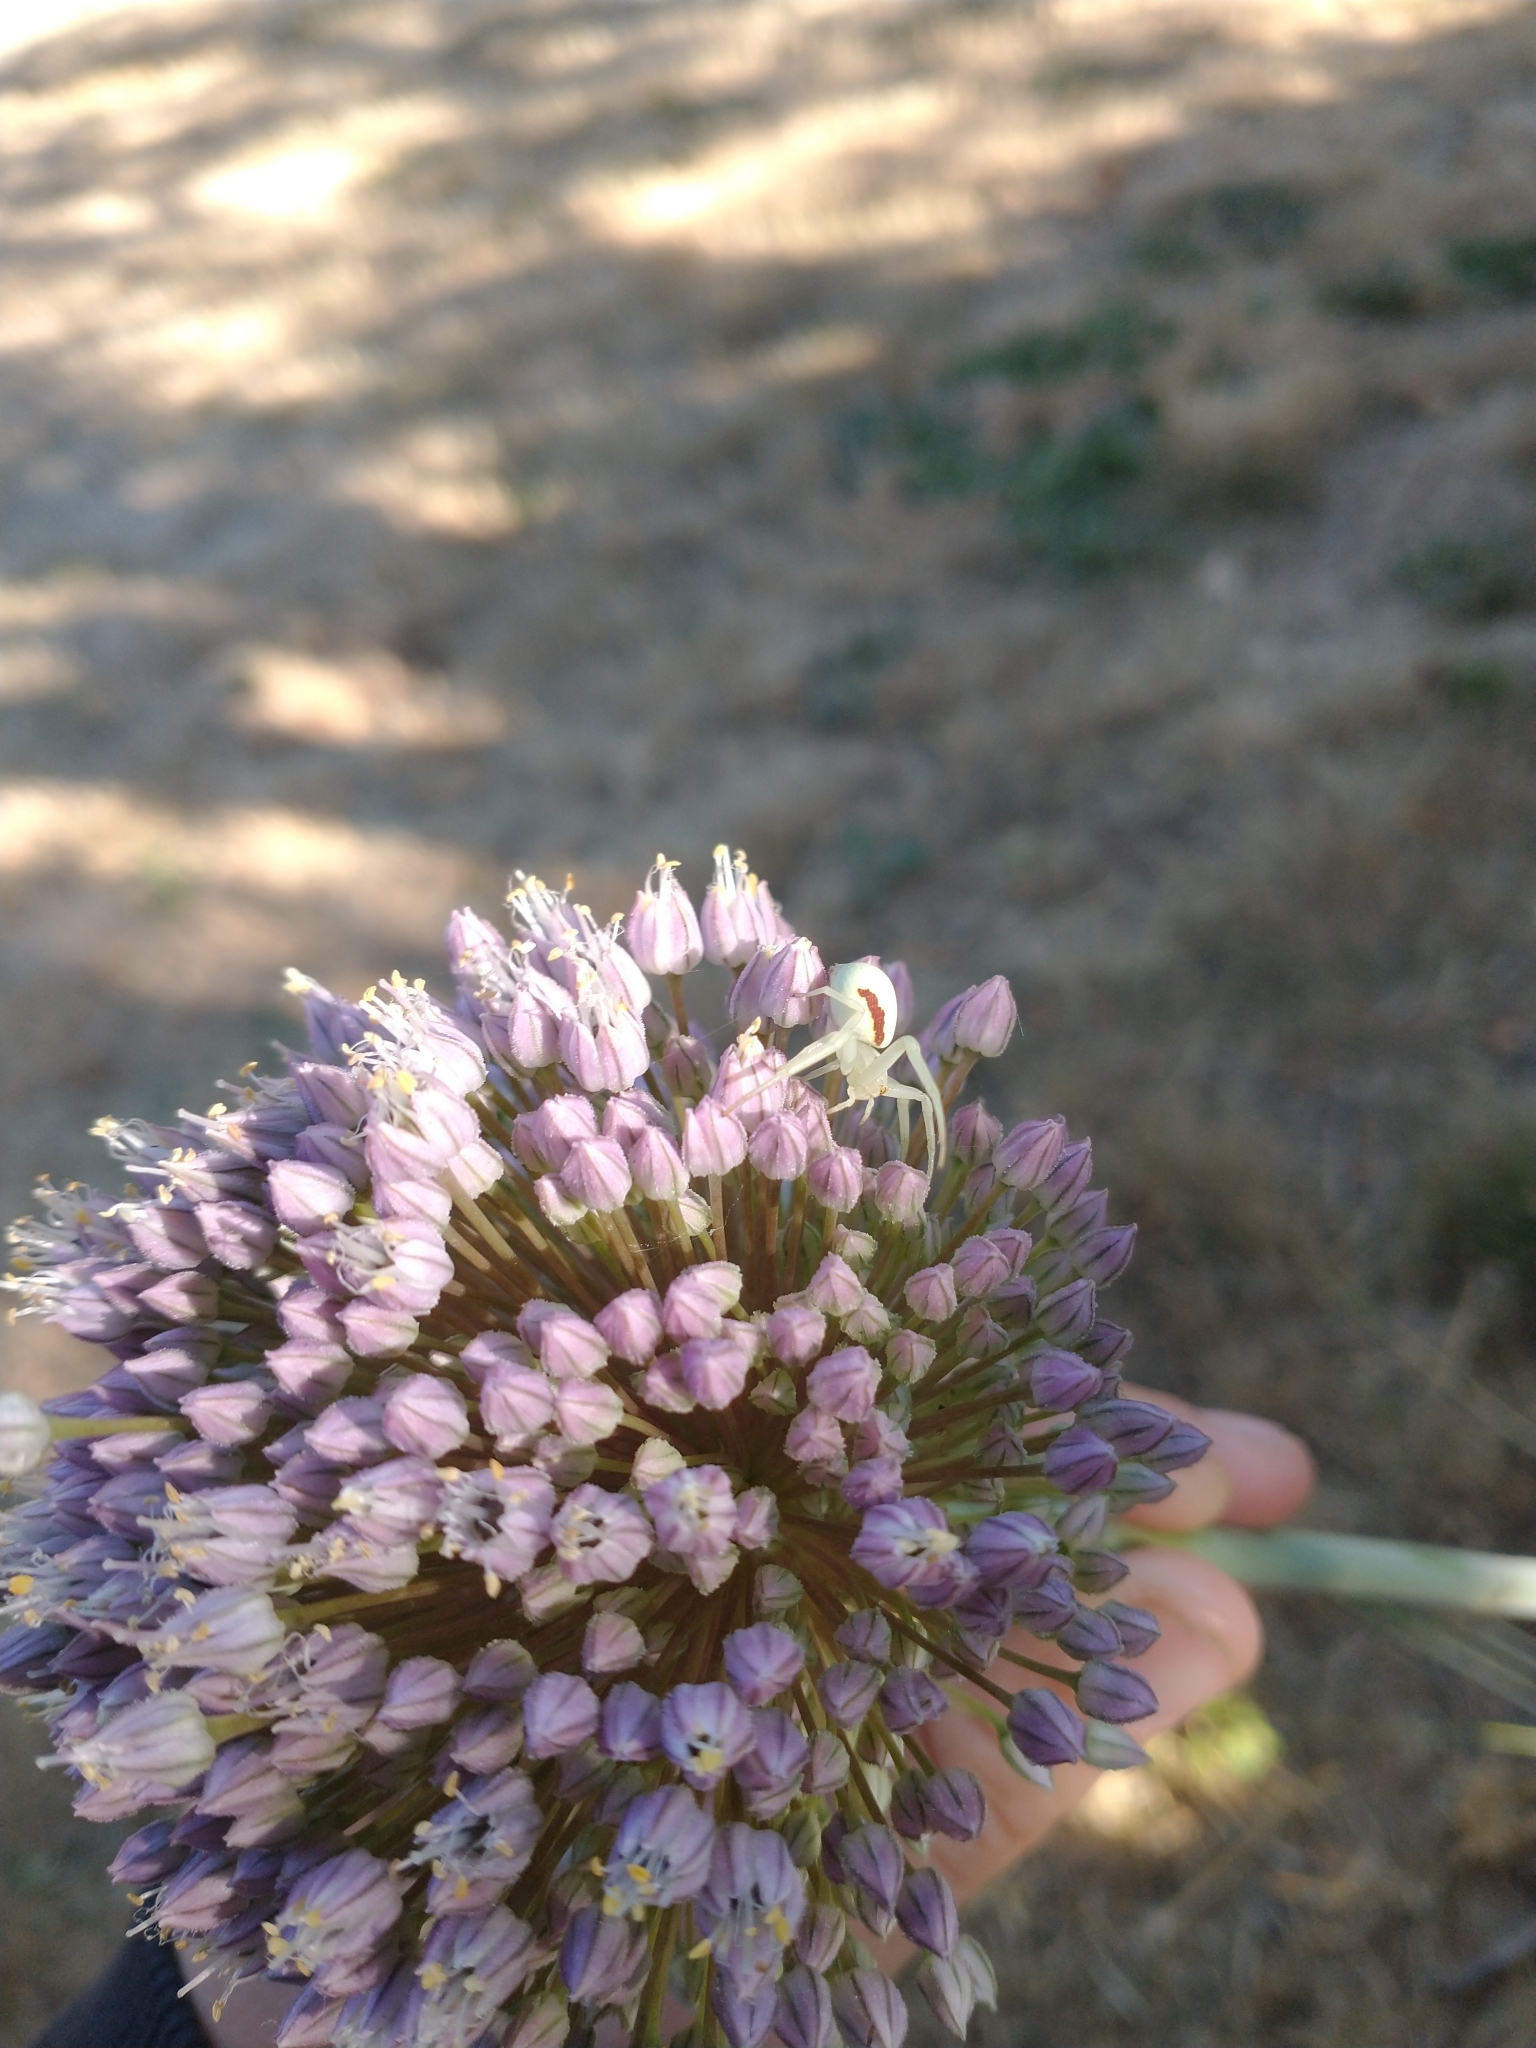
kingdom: Animalia
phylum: Arthropoda
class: Arachnida
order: Araneae
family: Thomisidae
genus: Misumena
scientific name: Misumena vatia
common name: Goldenrod crab spider
